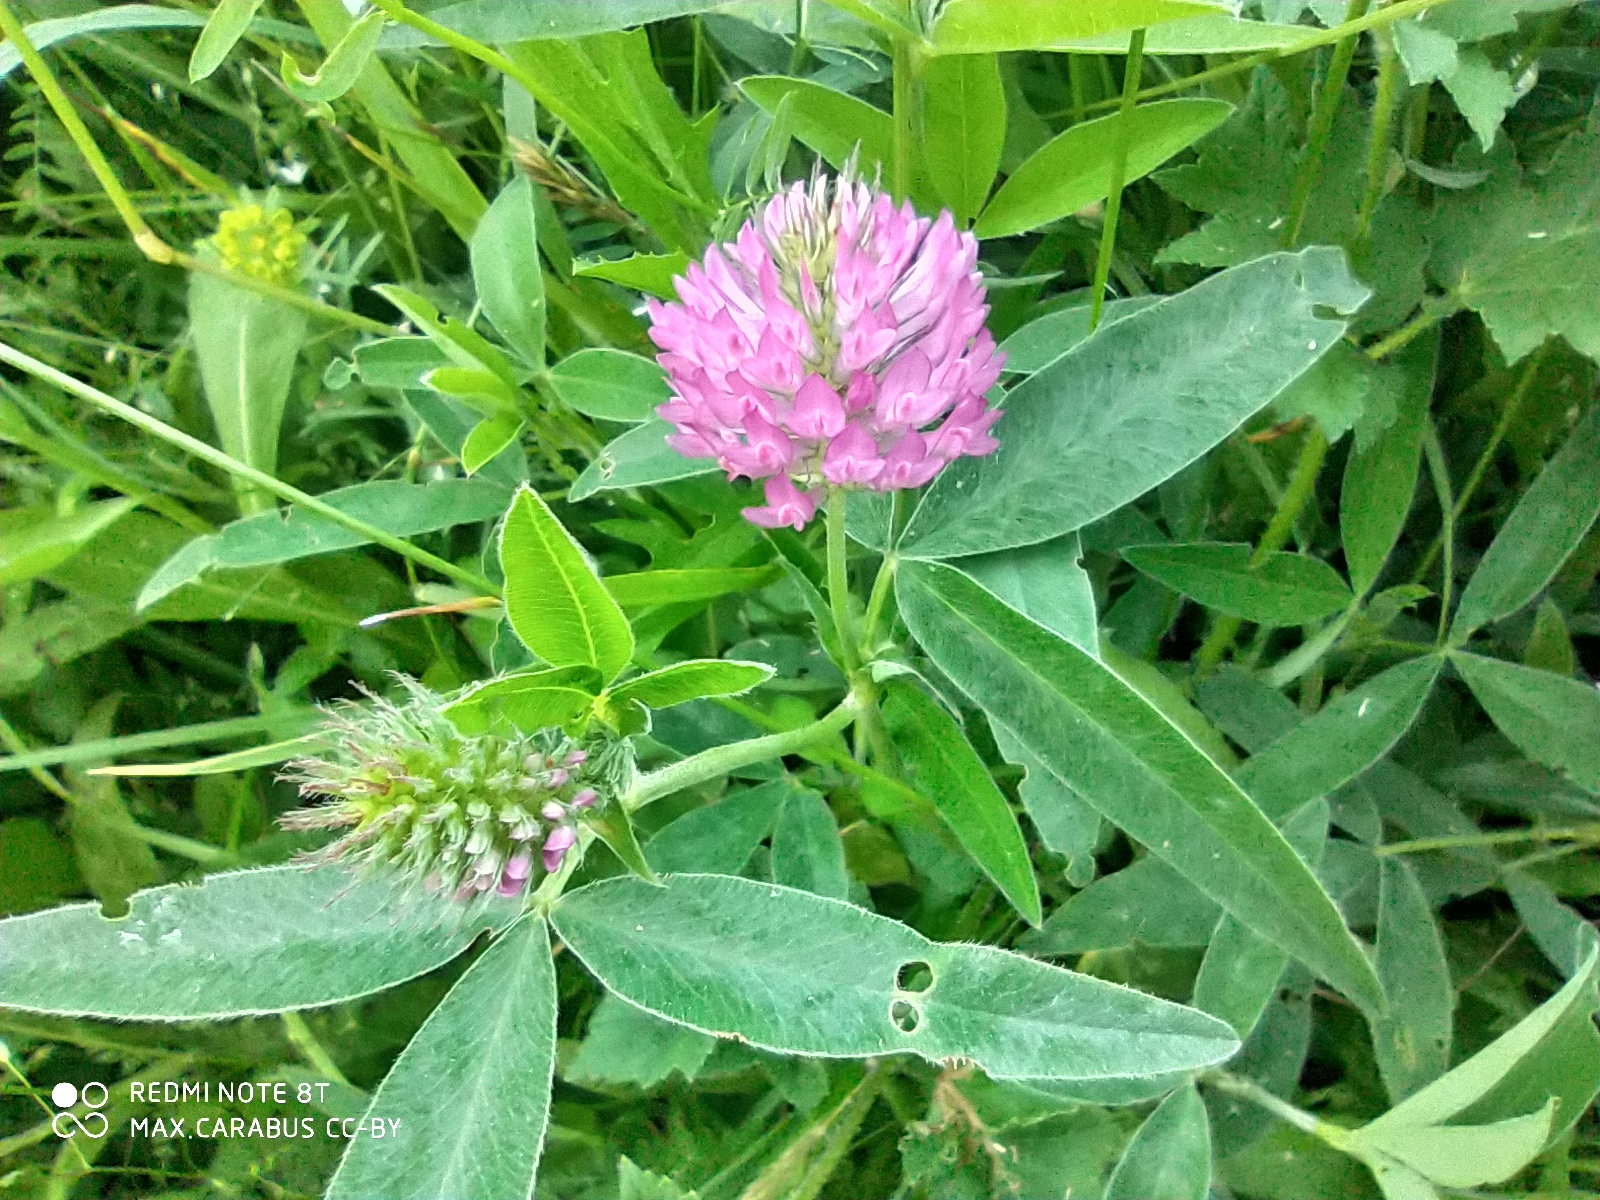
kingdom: Plantae
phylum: Tracheophyta
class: Magnoliopsida
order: Fabales
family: Fabaceae
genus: Trifolium
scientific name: Trifolium medium
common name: Zigzag clover
